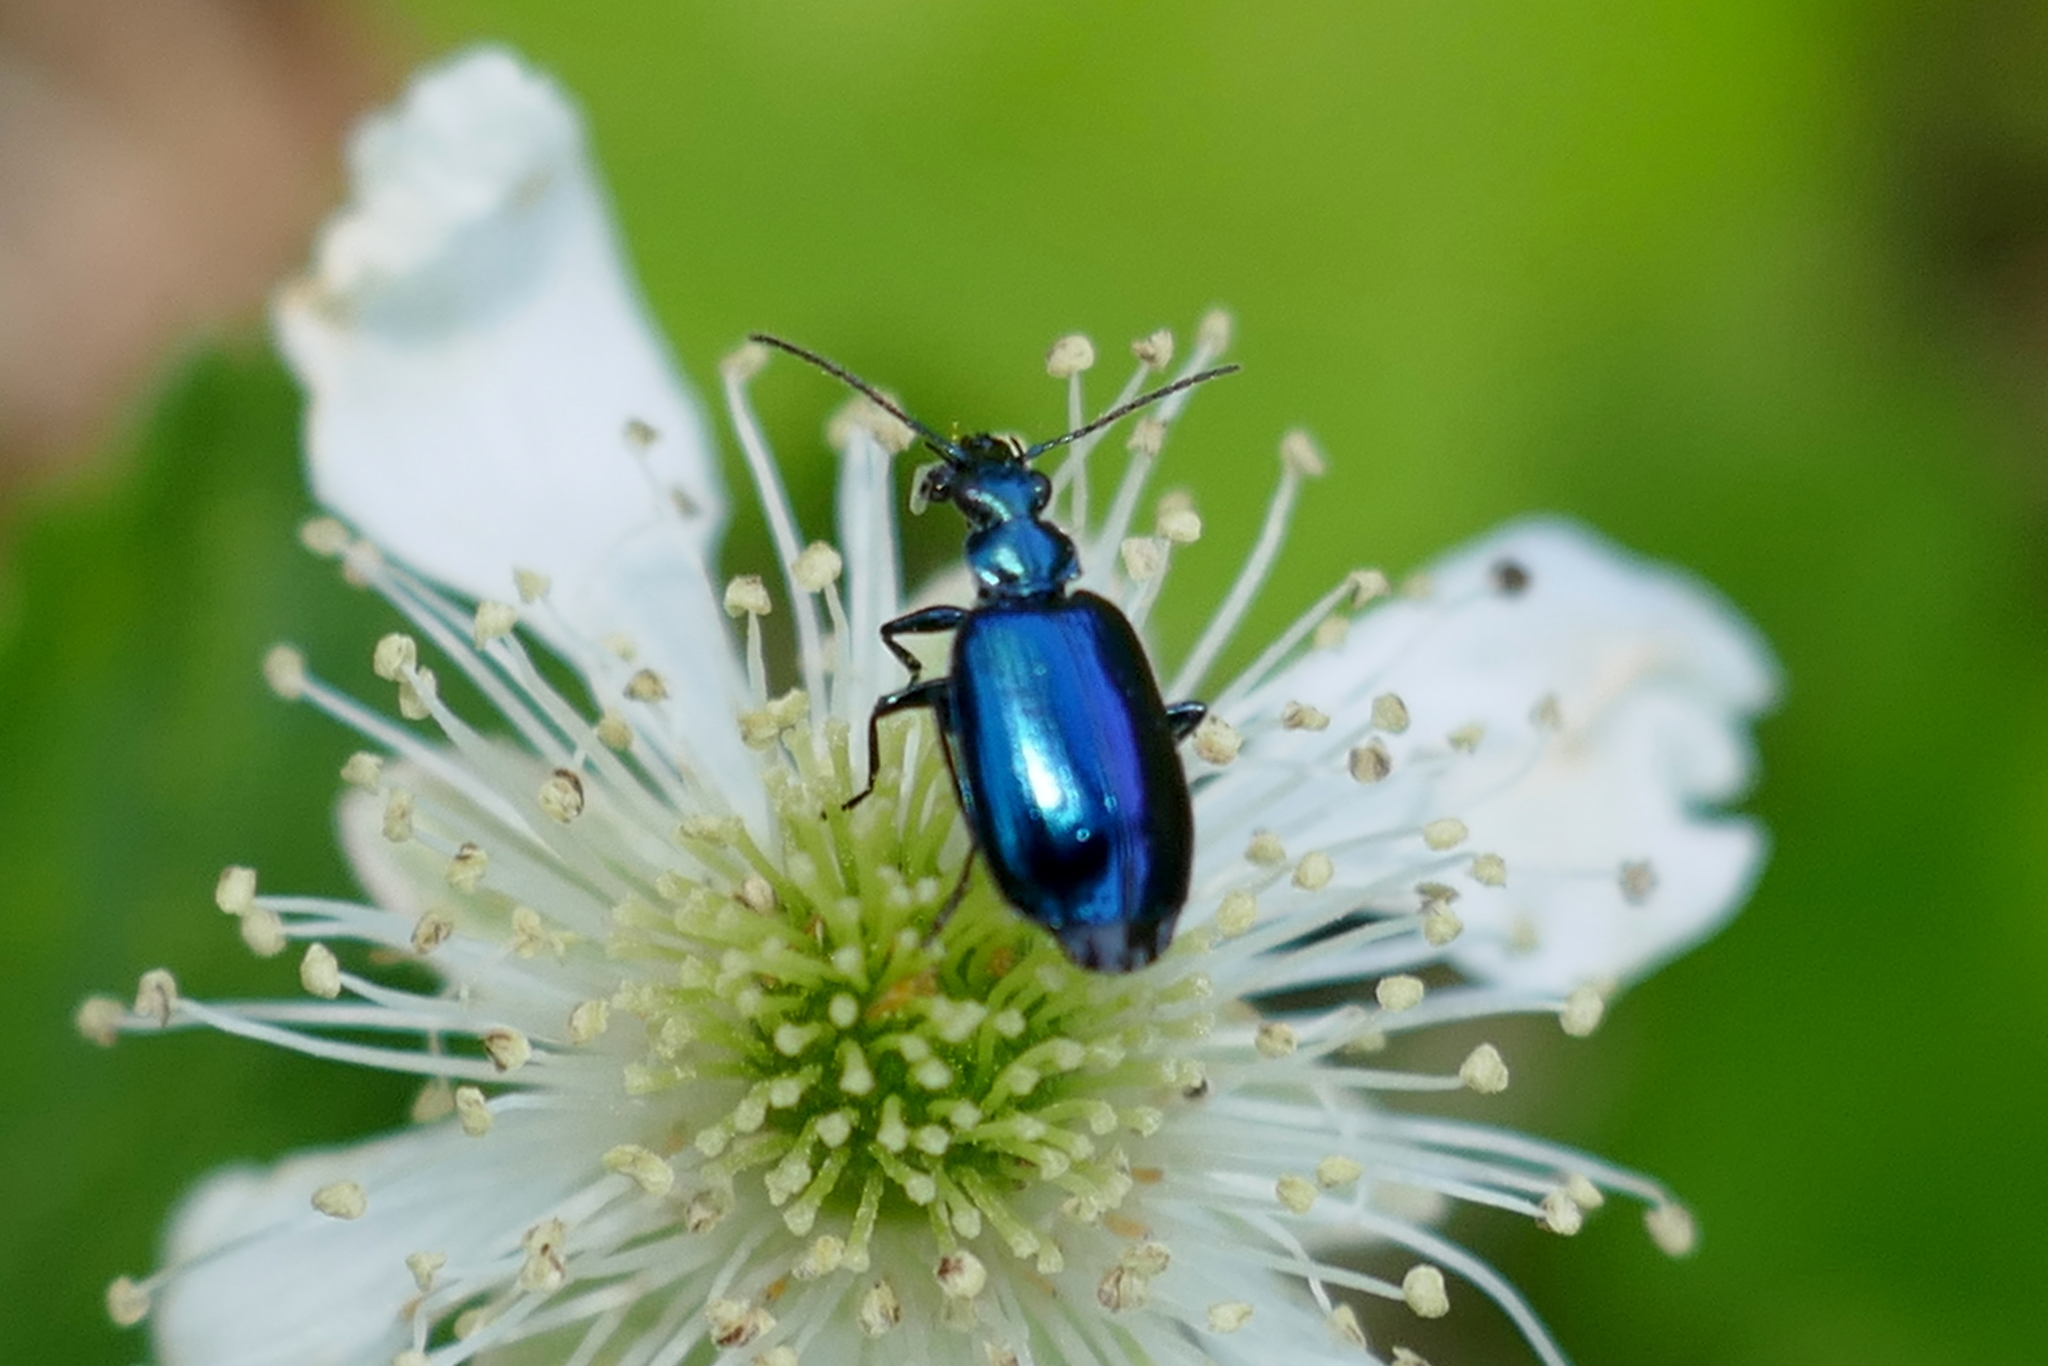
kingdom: Animalia
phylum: Arthropoda
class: Insecta
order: Coleoptera
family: Carabidae
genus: Lebia
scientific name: Lebia viridis
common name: Flower lebia beetle
